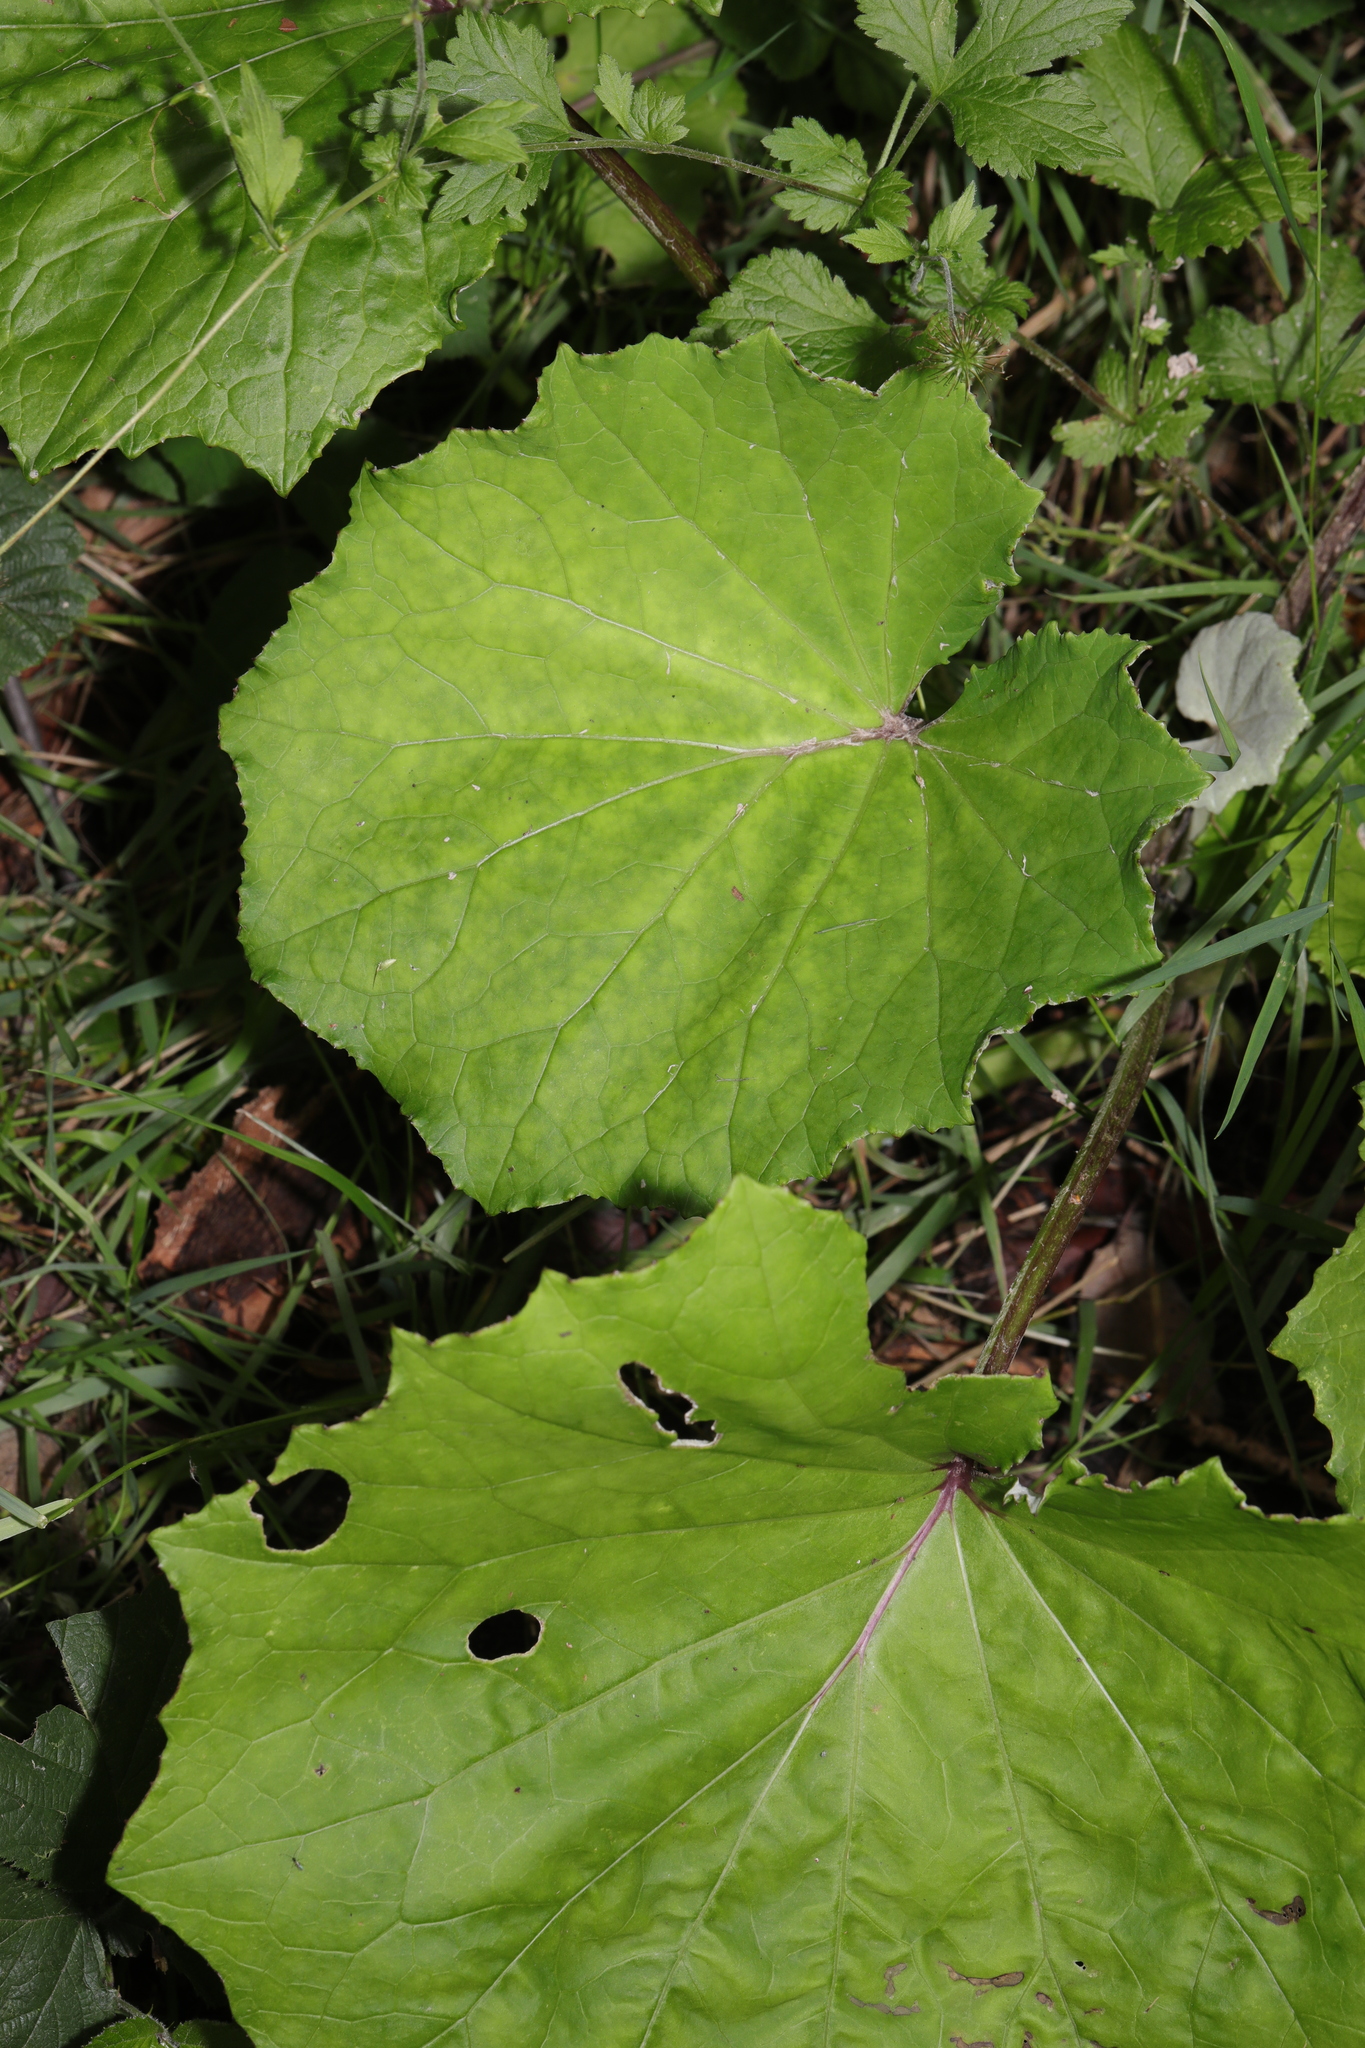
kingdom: Plantae
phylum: Tracheophyta
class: Magnoliopsida
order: Asterales
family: Asteraceae
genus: Tussilago
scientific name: Tussilago farfara
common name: Coltsfoot
